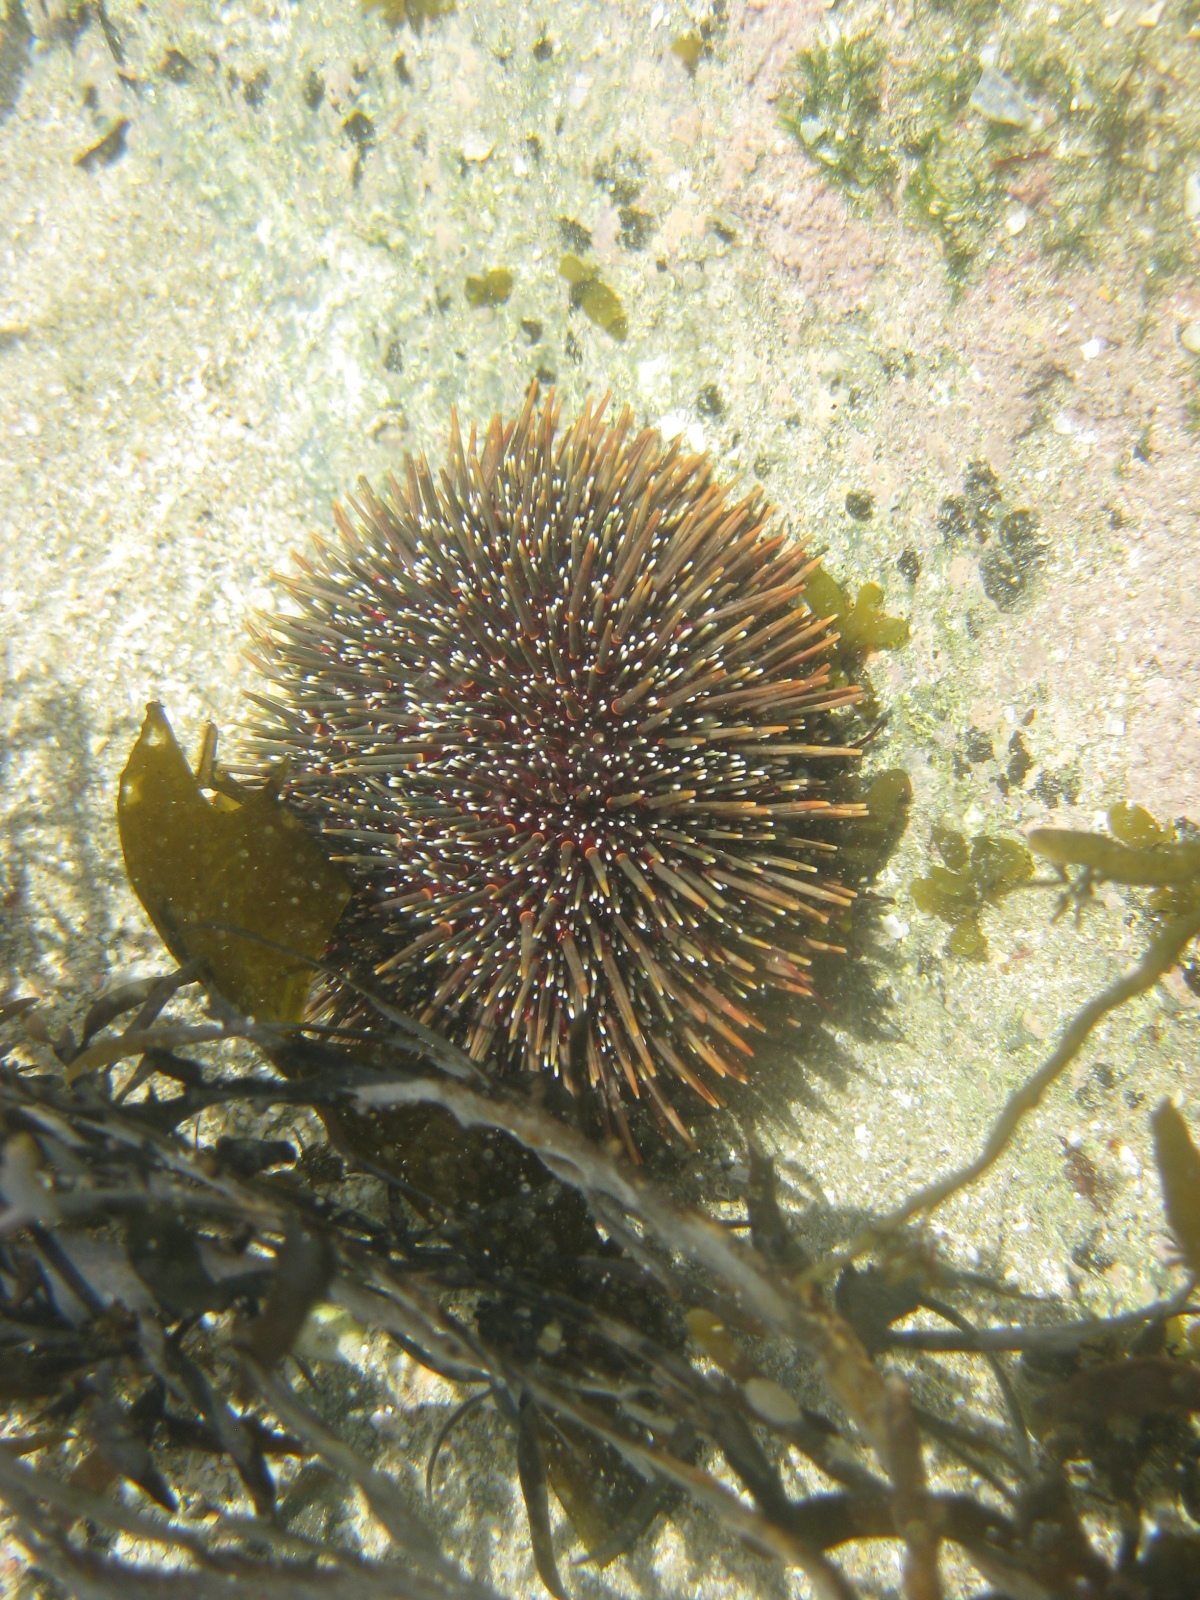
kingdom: Animalia
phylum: Echinodermata
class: Echinoidea
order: Camarodonta
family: Echinometridae
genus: Evechinus
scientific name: Evechinus chloroticus
